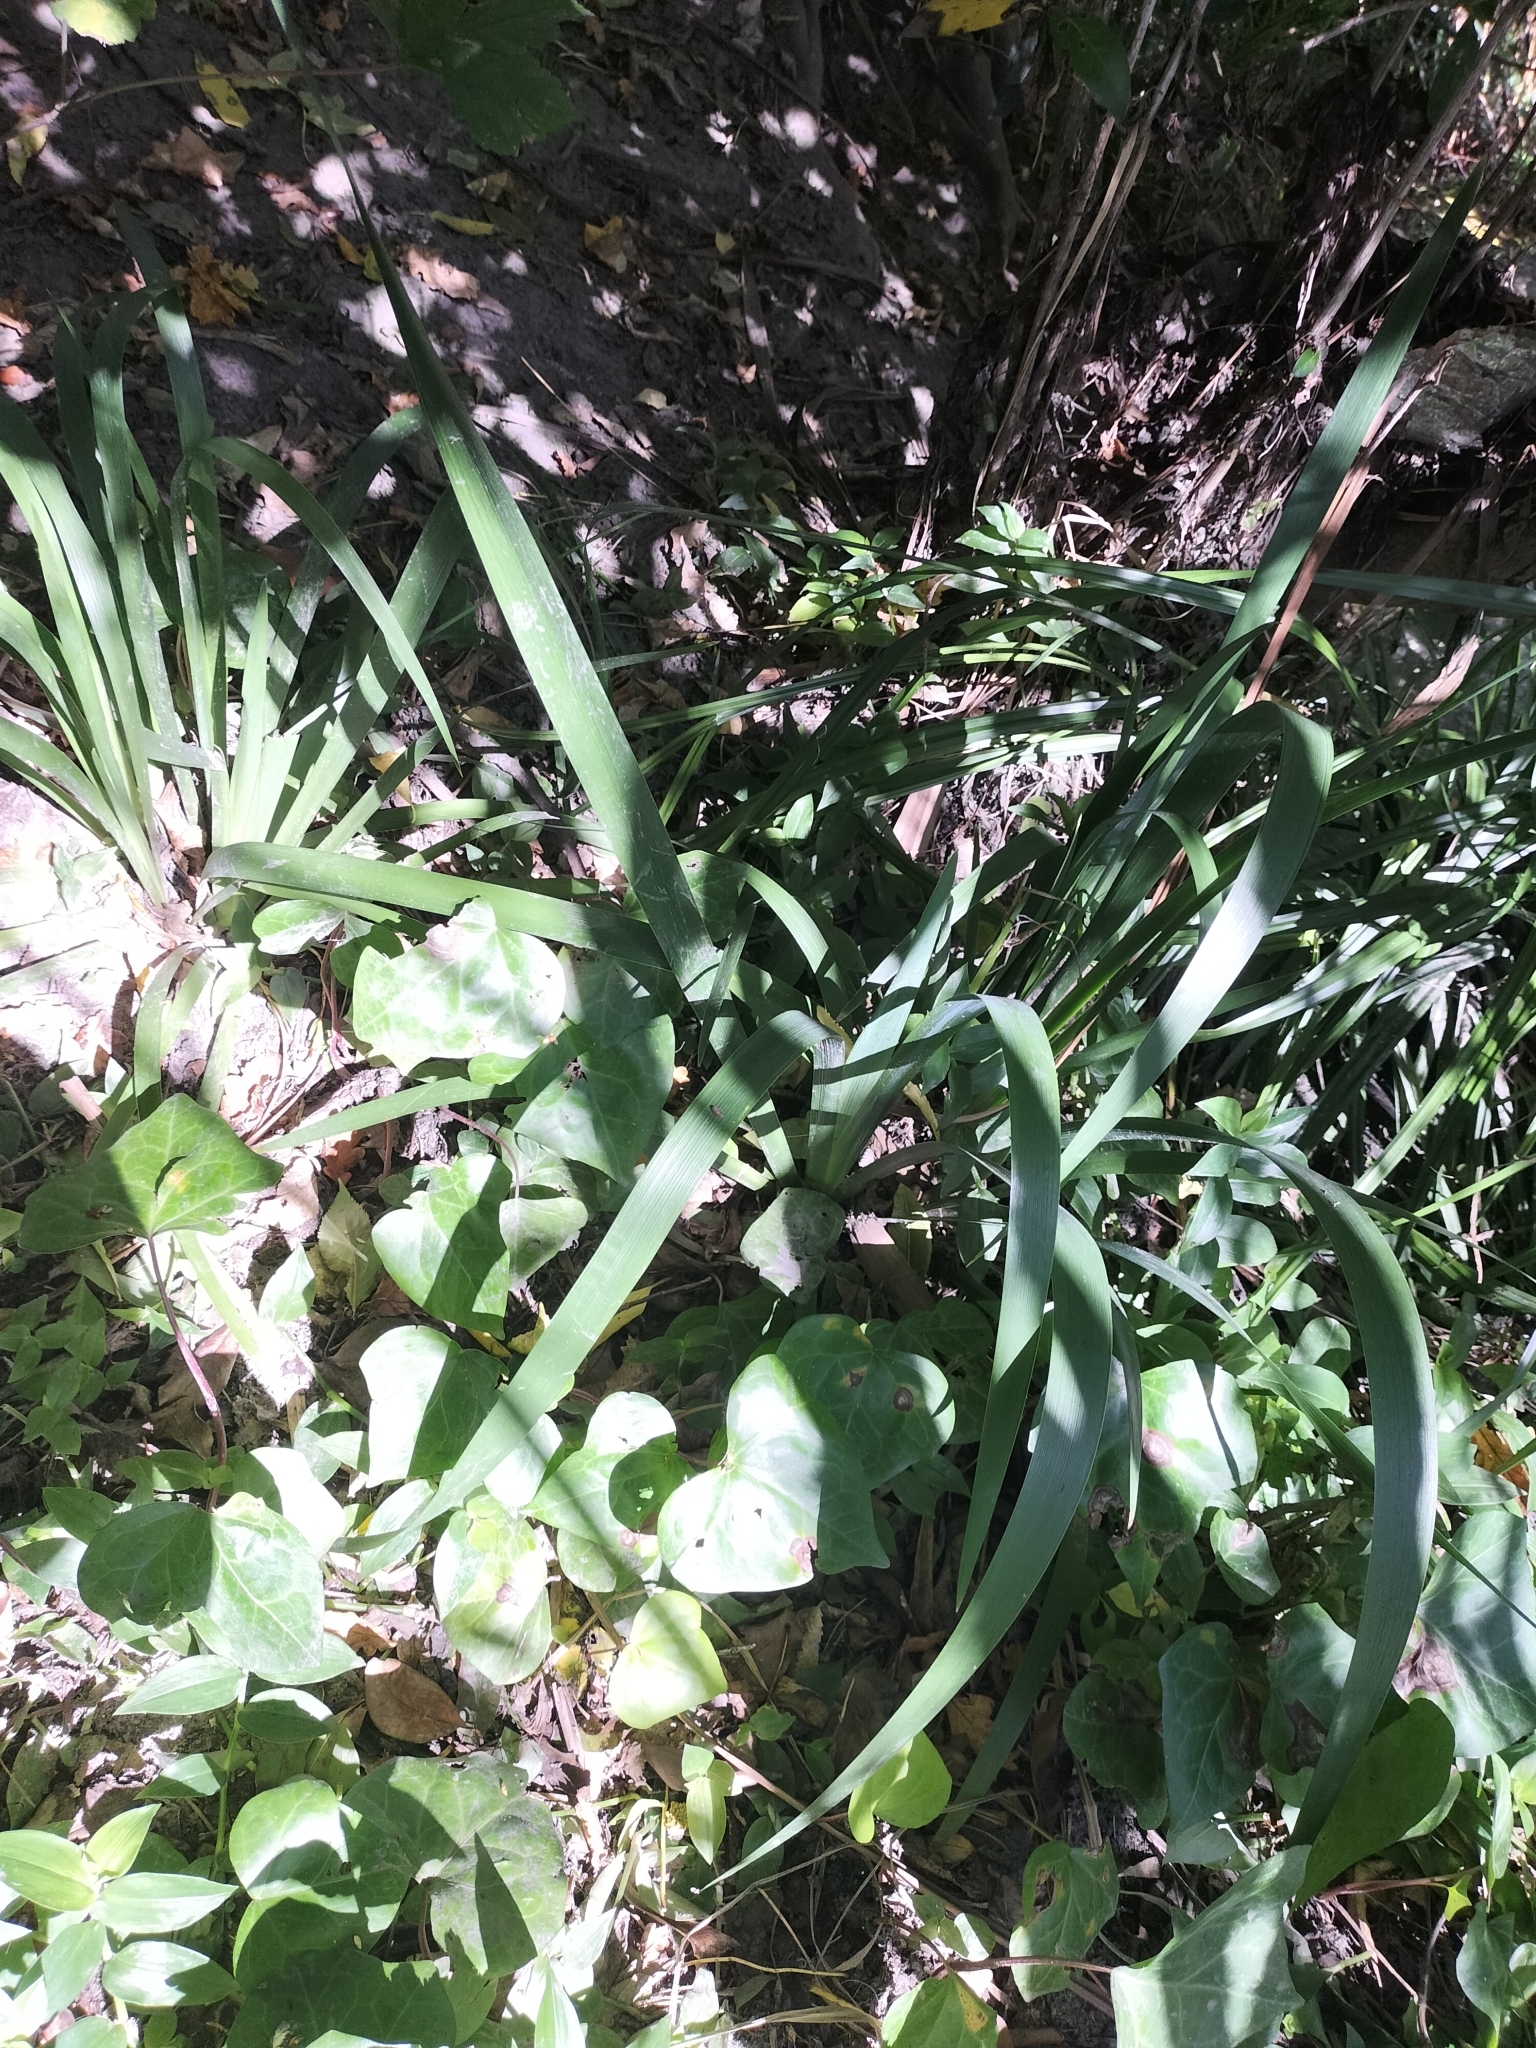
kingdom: Plantae
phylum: Tracheophyta
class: Liliopsida
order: Asparagales
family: Iridaceae
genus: Iris
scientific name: Iris foetidissima
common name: Stinking iris
